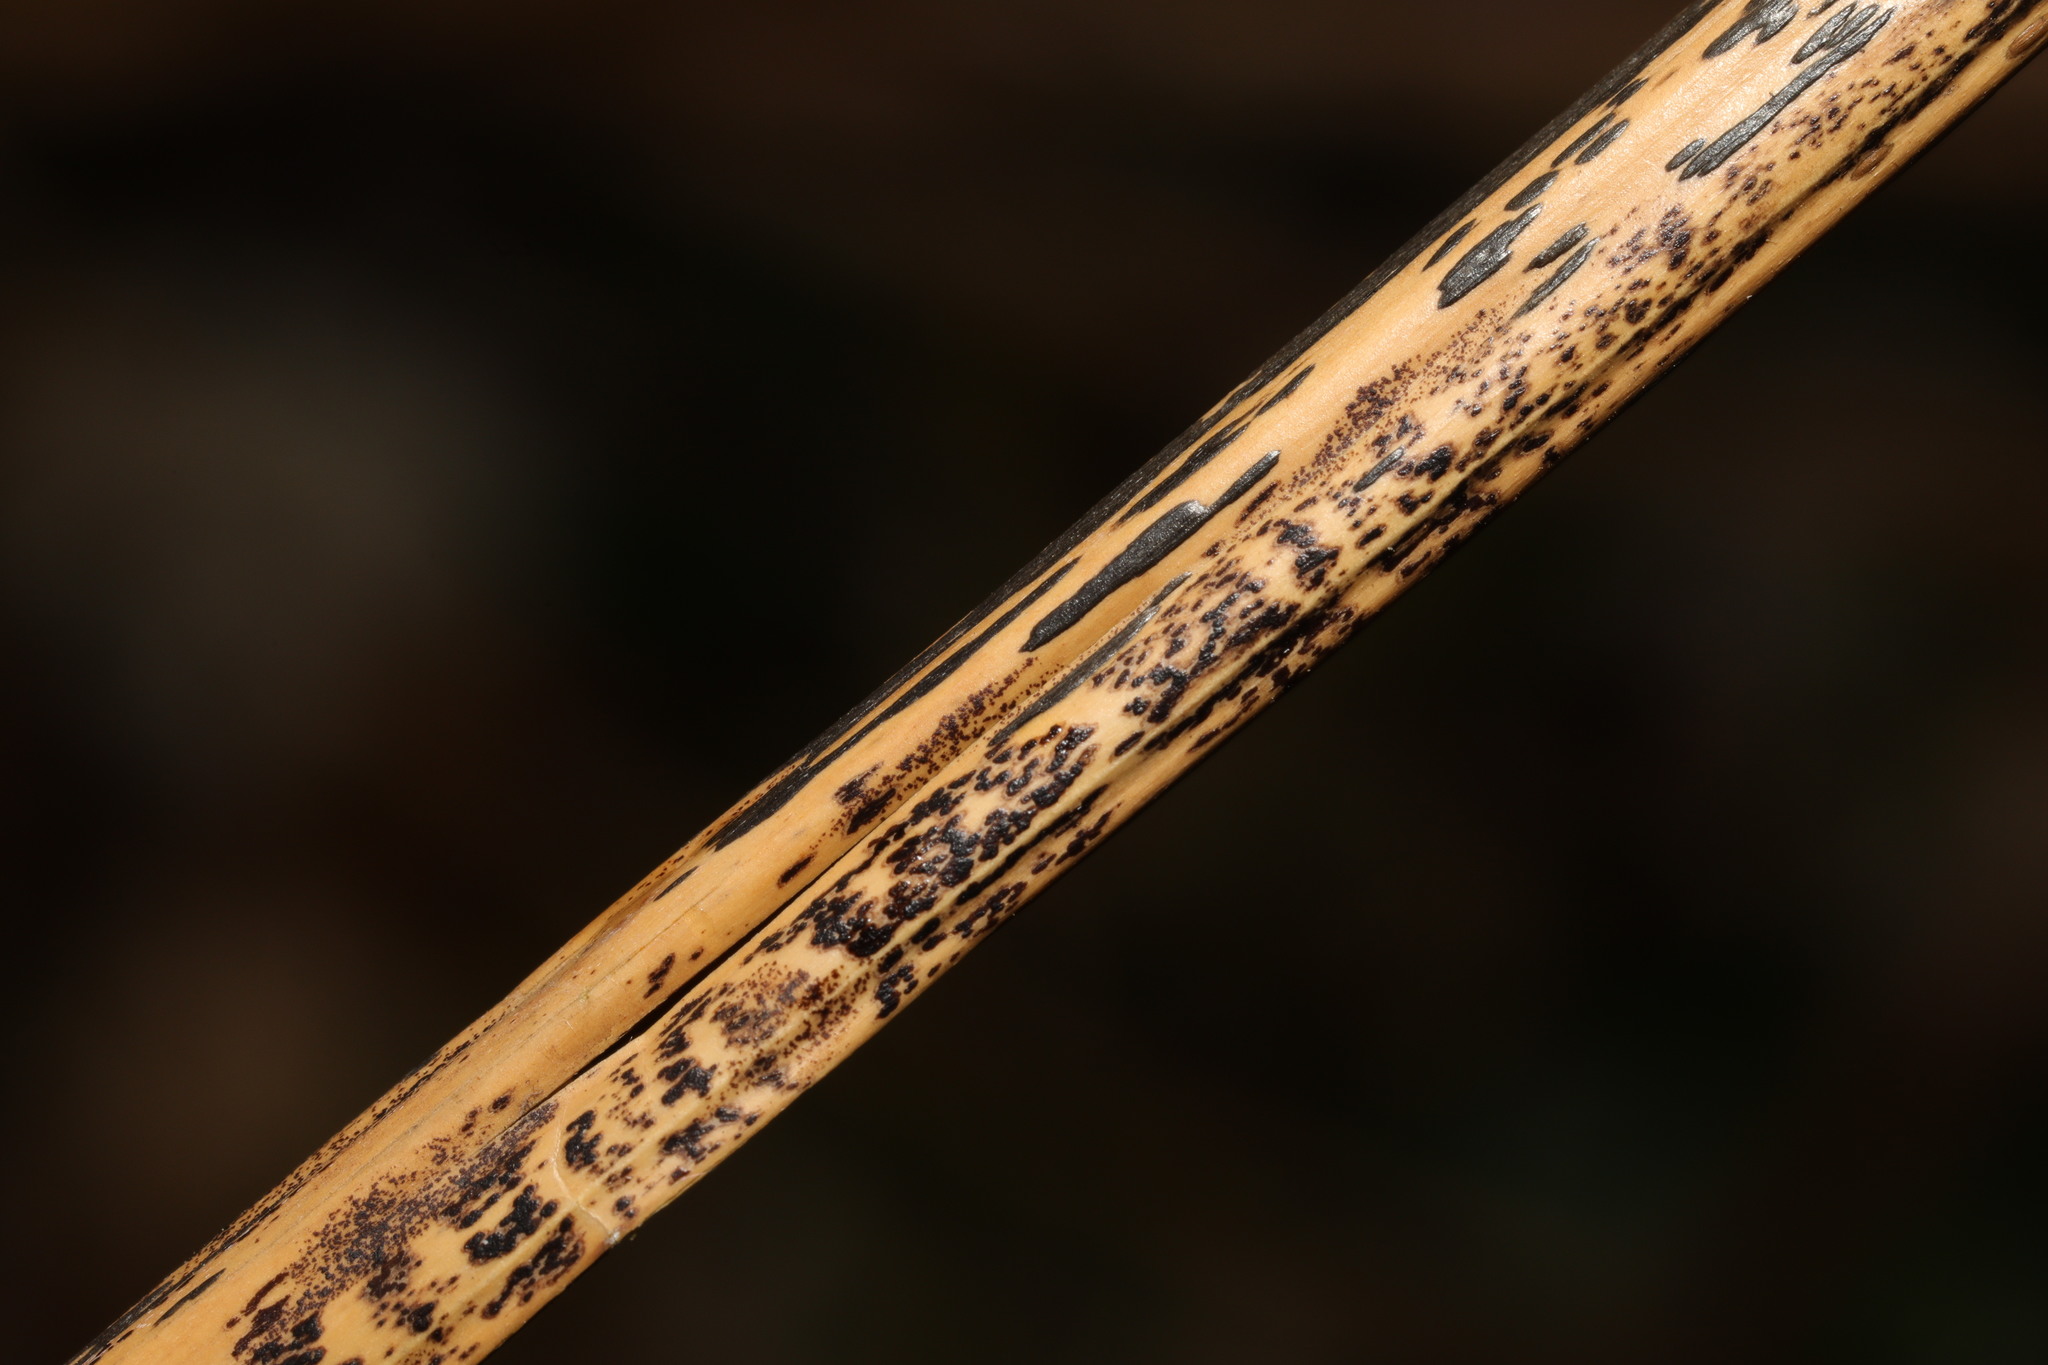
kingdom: Fungi
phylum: Ascomycota
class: Dothideomycetes
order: Pleosporales
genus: Rhopographus
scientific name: Rhopographus filicinus
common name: Bracken map
